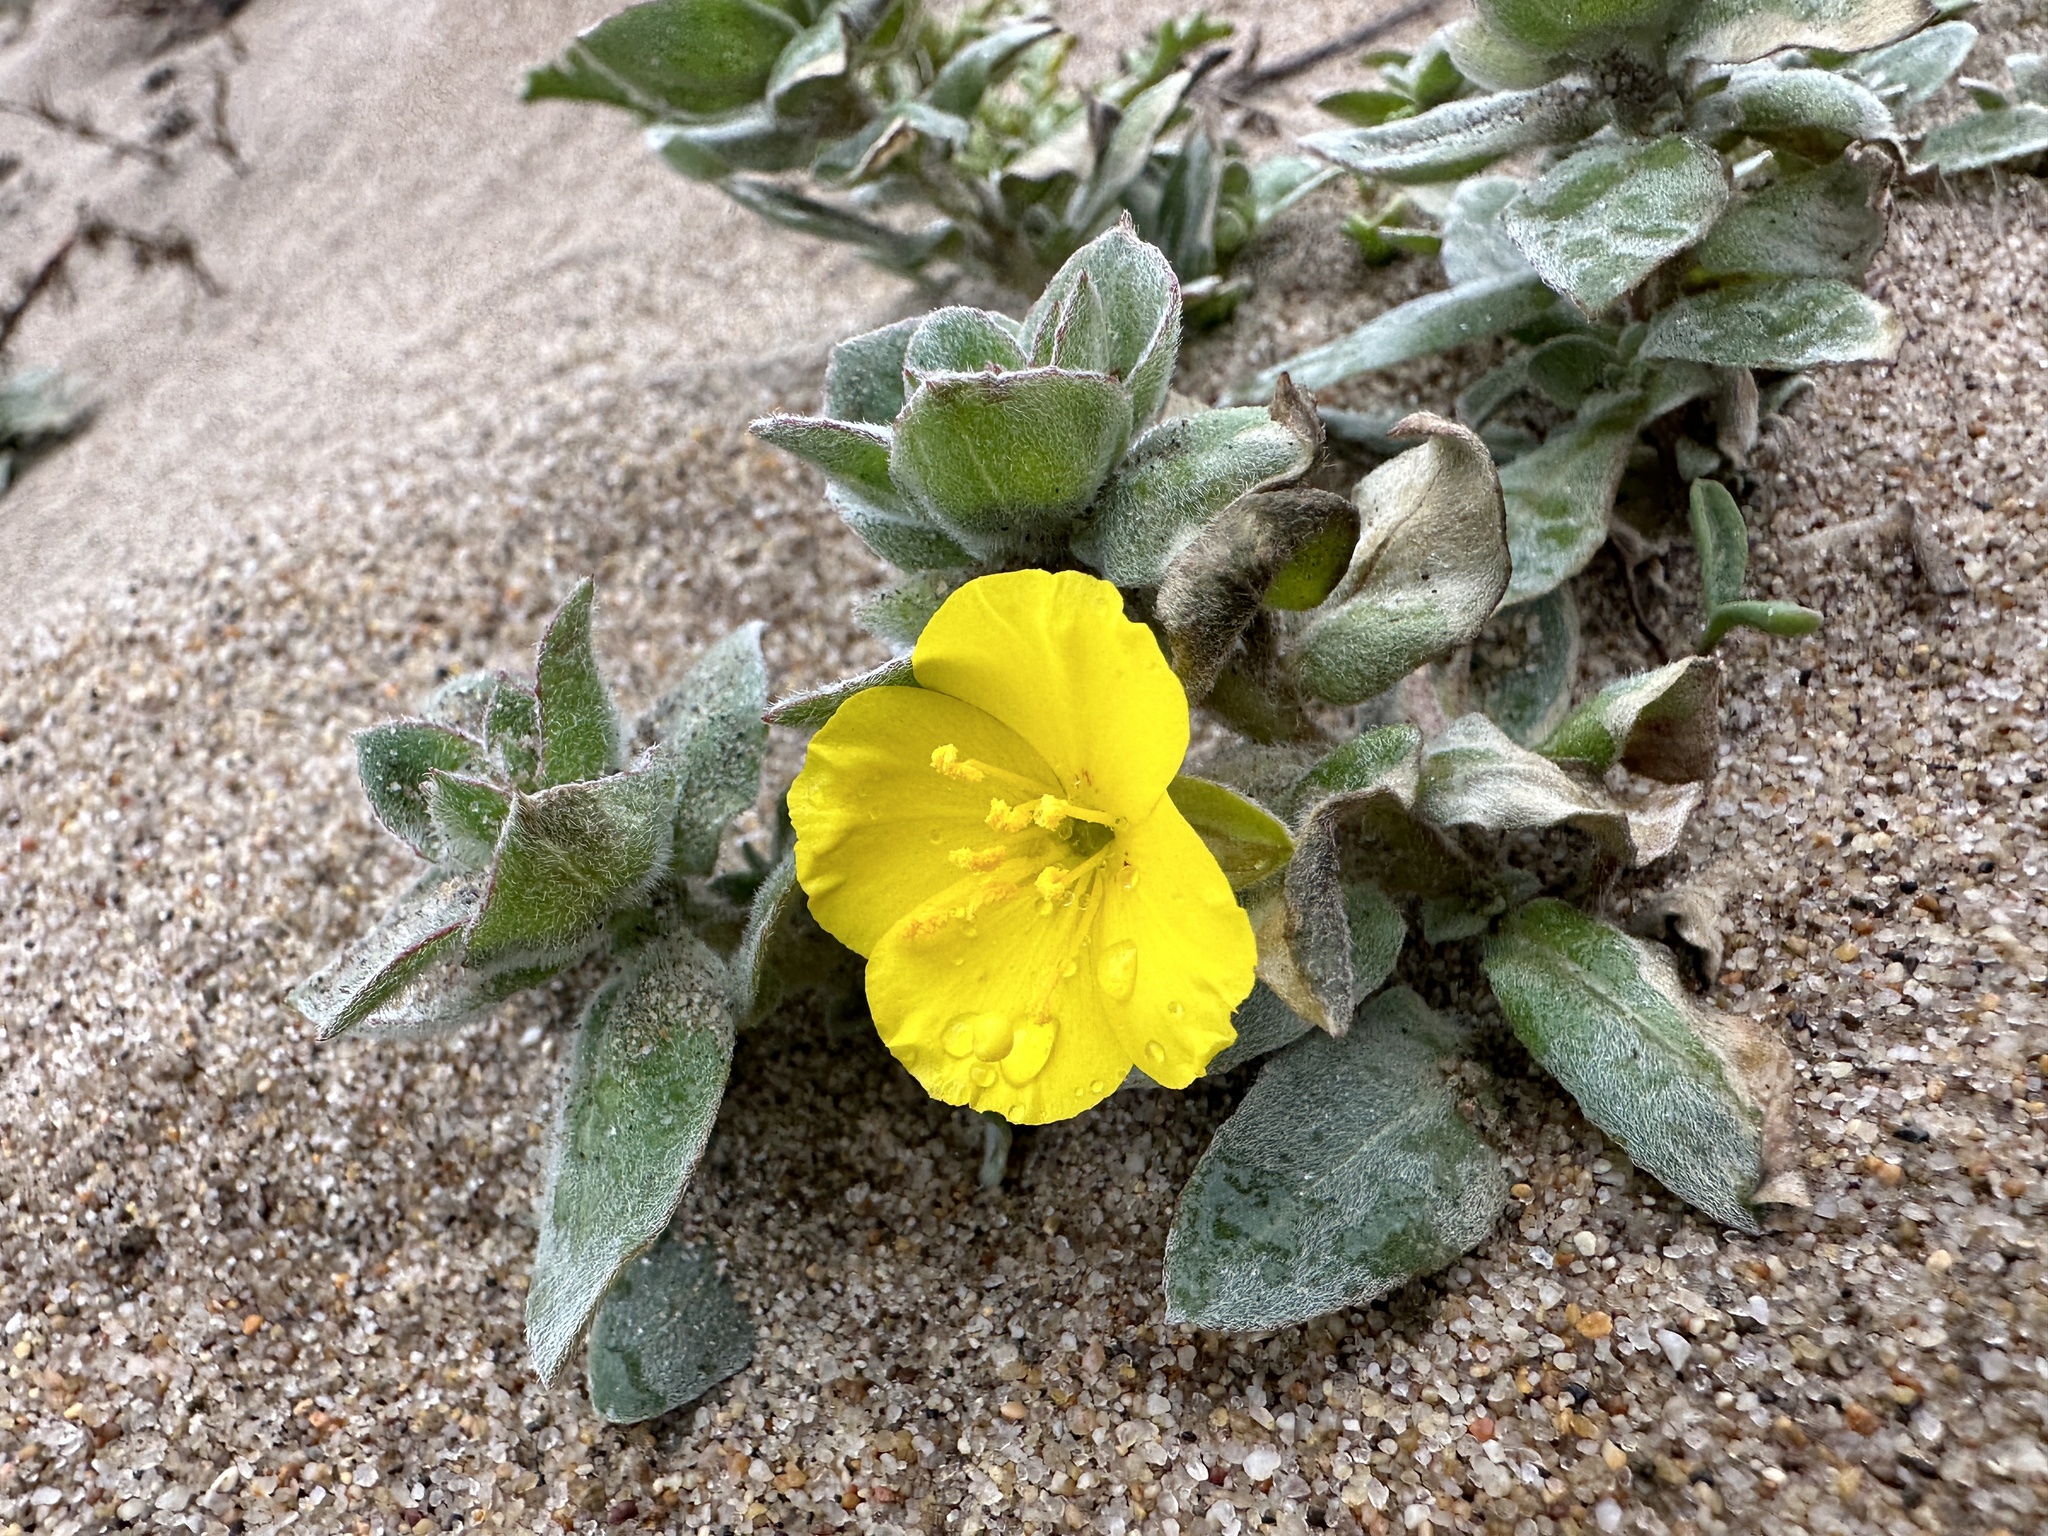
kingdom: Plantae
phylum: Tracheophyta
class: Magnoliopsida
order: Myrtales
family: Onagraceae
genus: Camissoniopsis
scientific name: Camissoniopsis cheiranthifolia
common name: Beach suncup
